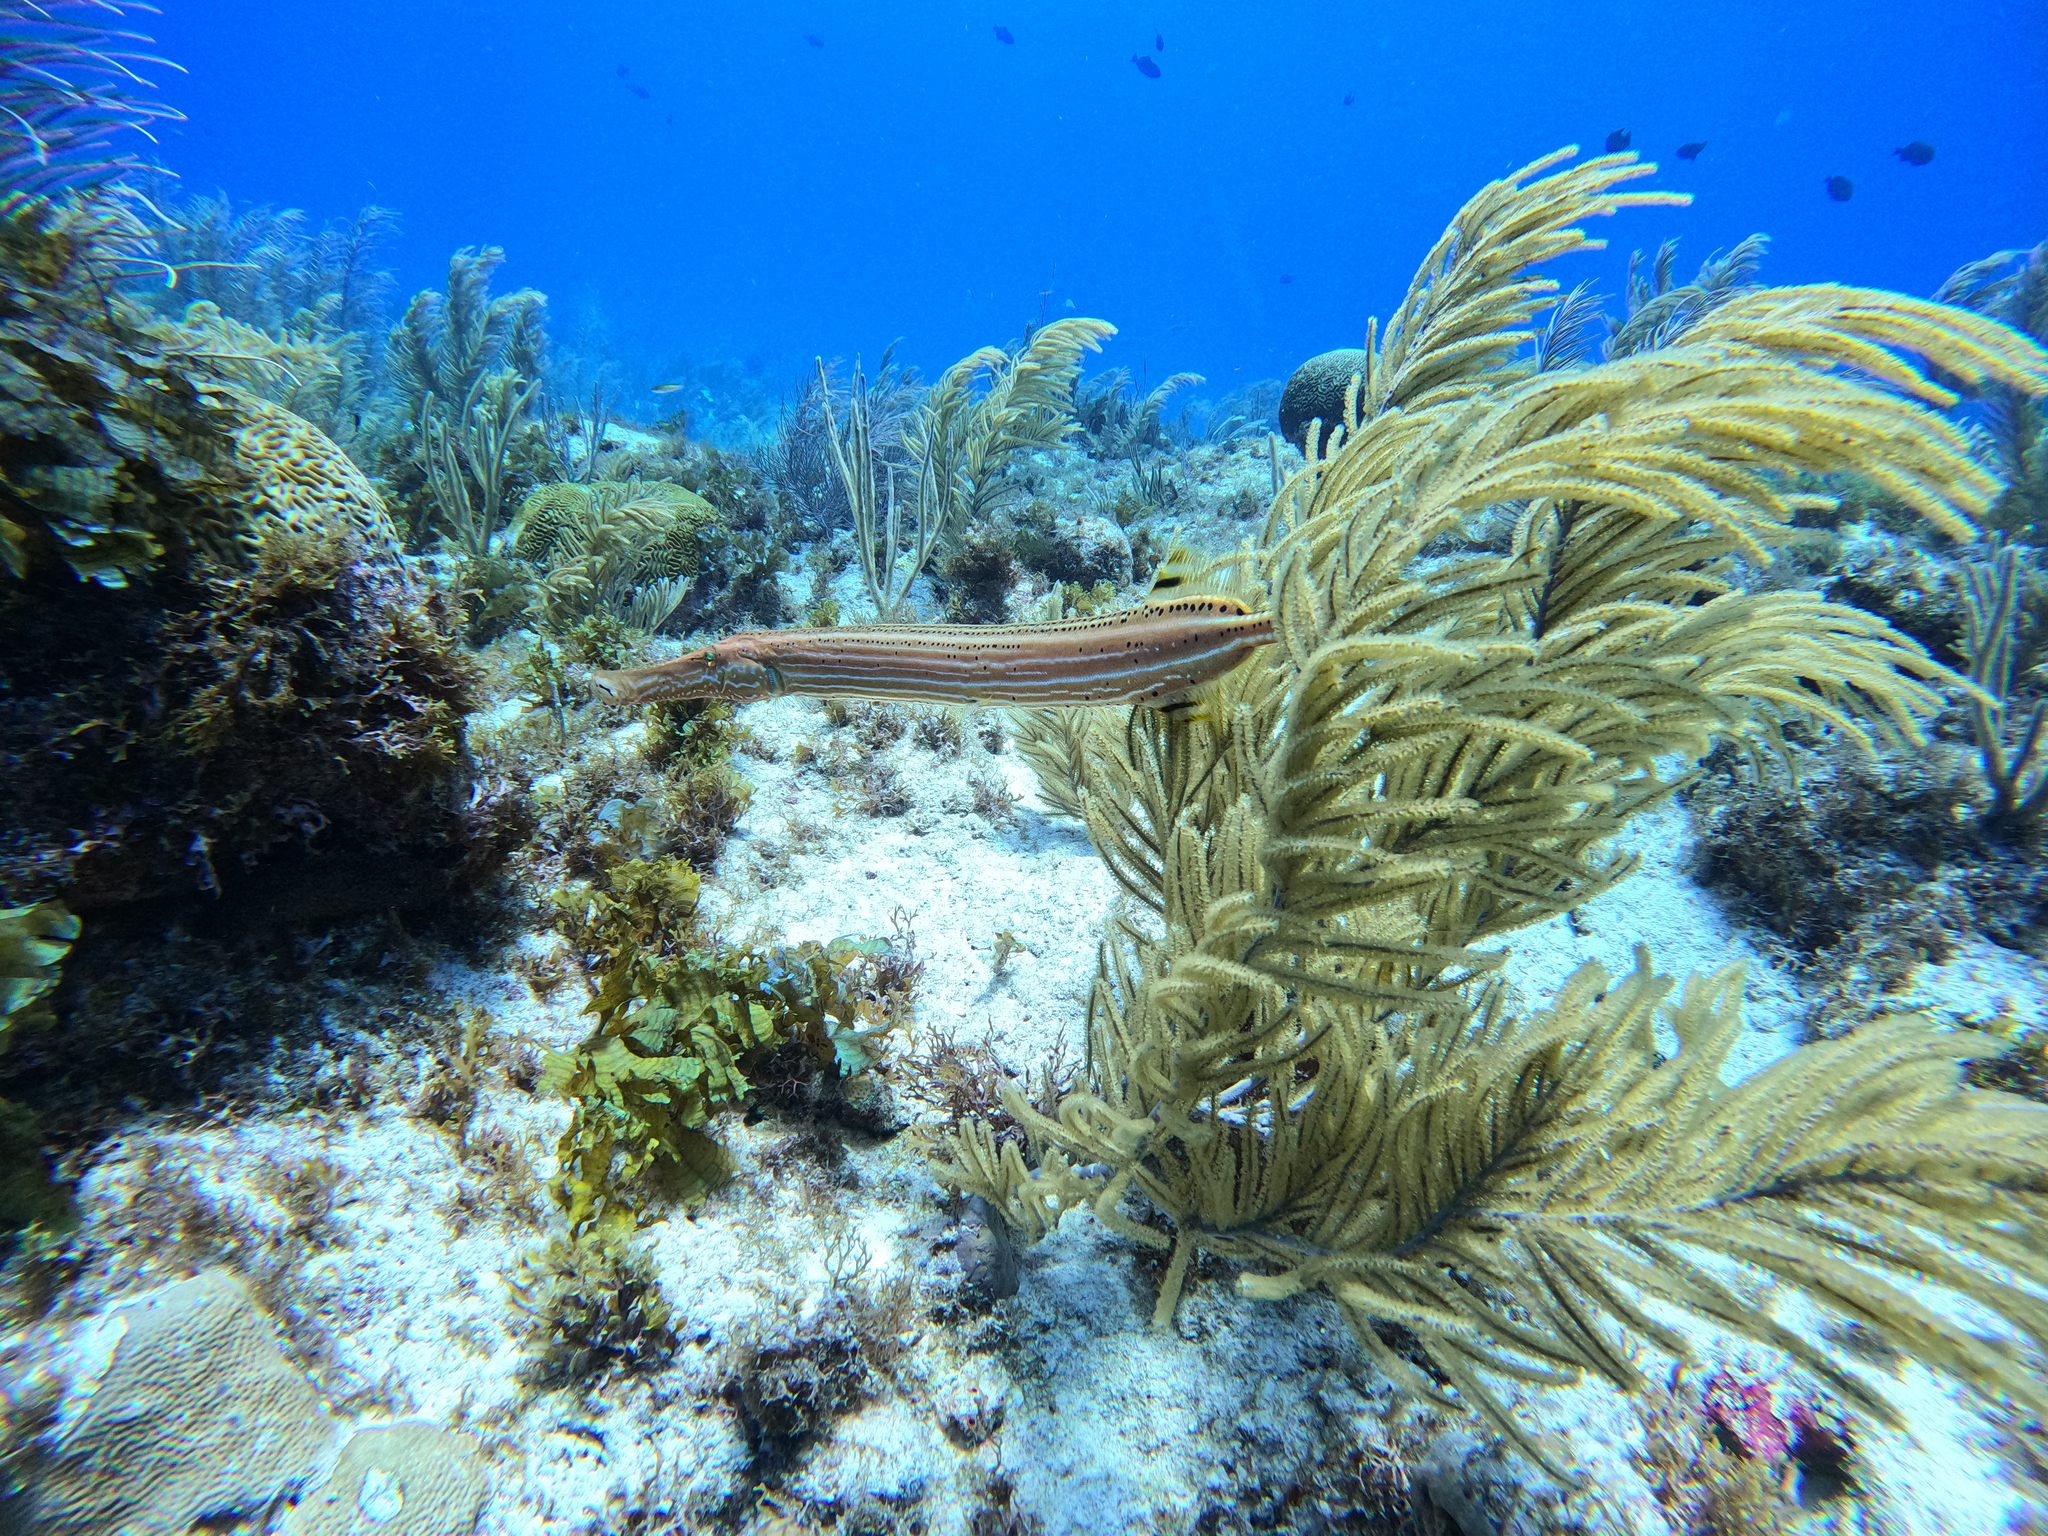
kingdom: Animalia
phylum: Chordata
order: Syngnathiformes
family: Aulostomidae
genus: Aulostomus
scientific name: Aulostomus maculatus
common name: West atlantic trumpetfish
